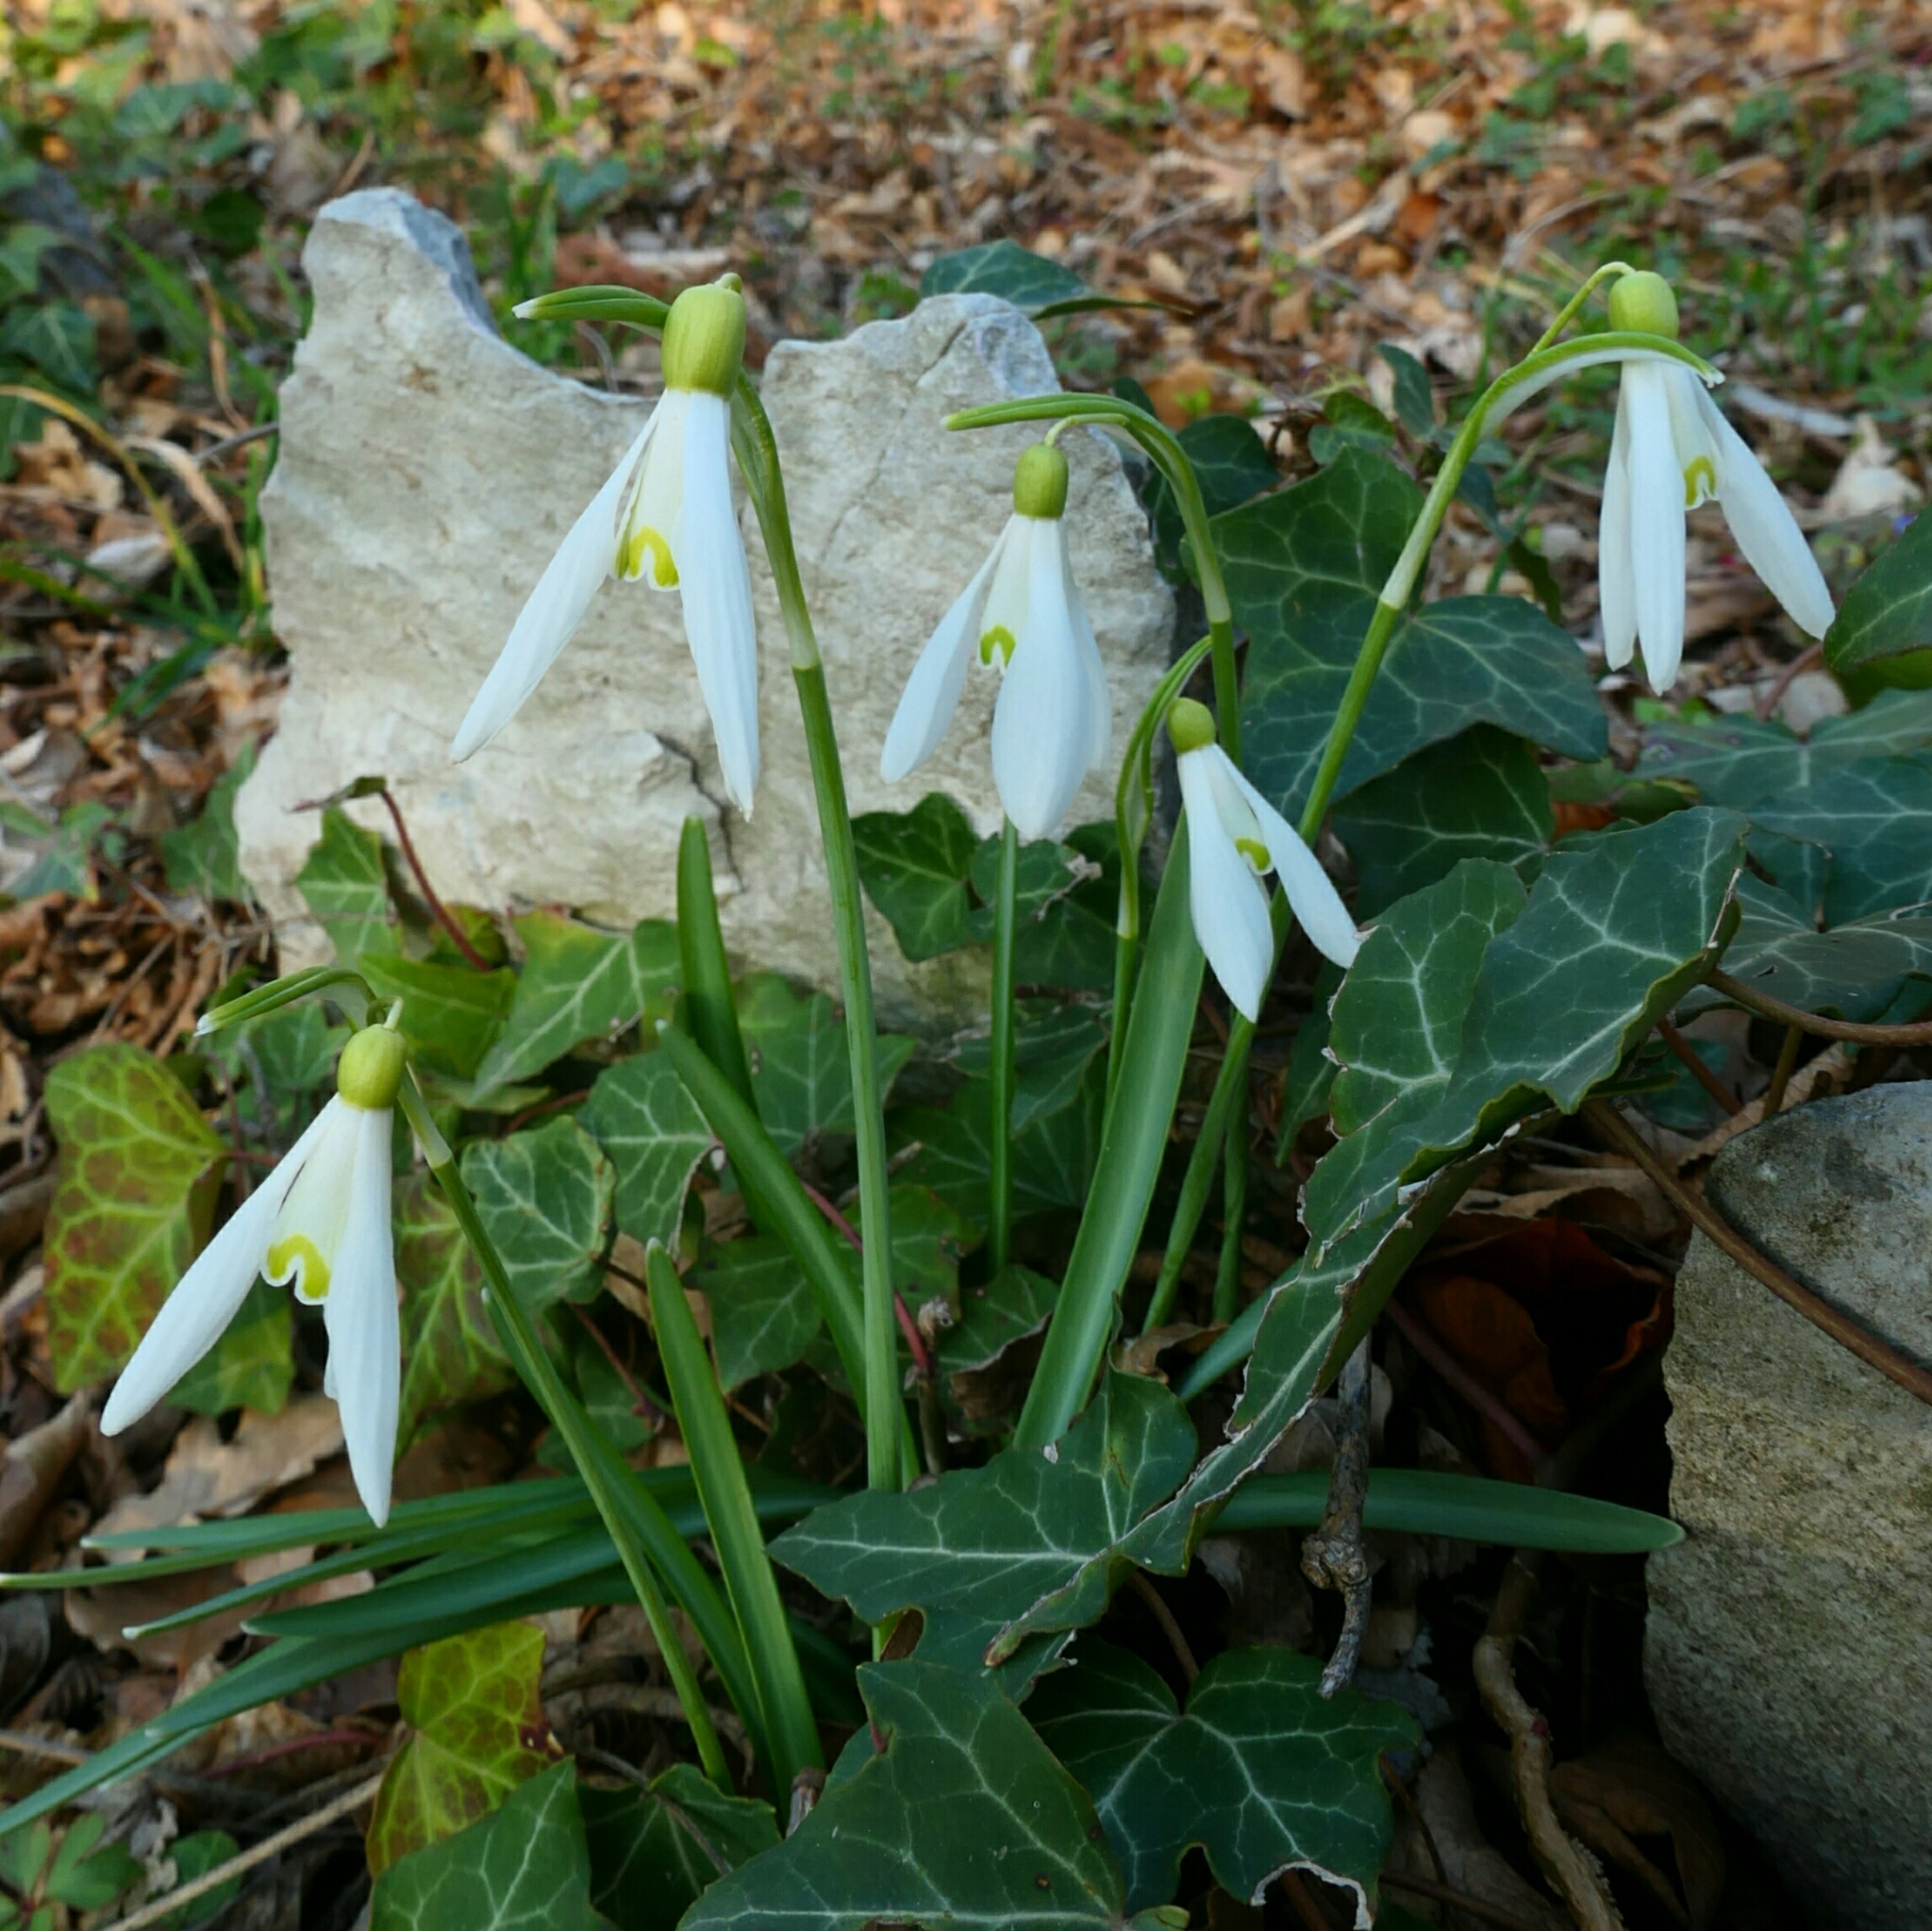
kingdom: Plantae
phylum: Tracheophyta
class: Liliopsida
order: Asparagales
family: Amaryllidaceae
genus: Galanthus
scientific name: Galanthus nivalis
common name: Snowdrop
